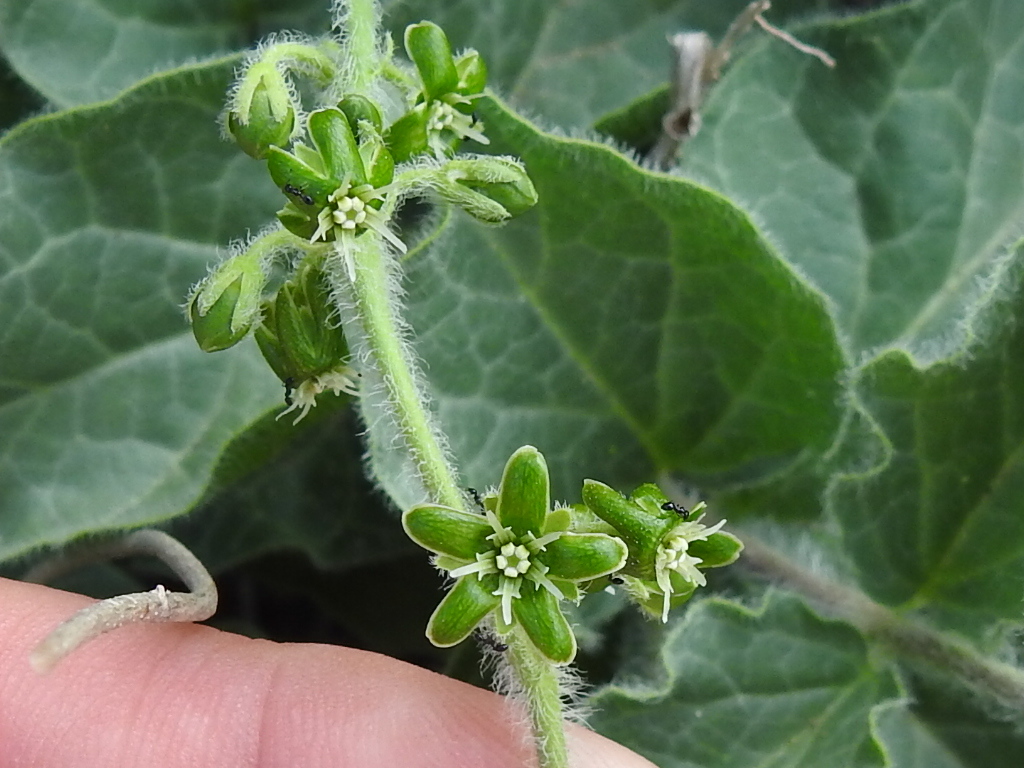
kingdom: Plantae
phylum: Tracheophyta
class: Magnoliopsida
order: Gentianales
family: Apocynaceae
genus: Chthamalia
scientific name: Chthamalia parviflora
